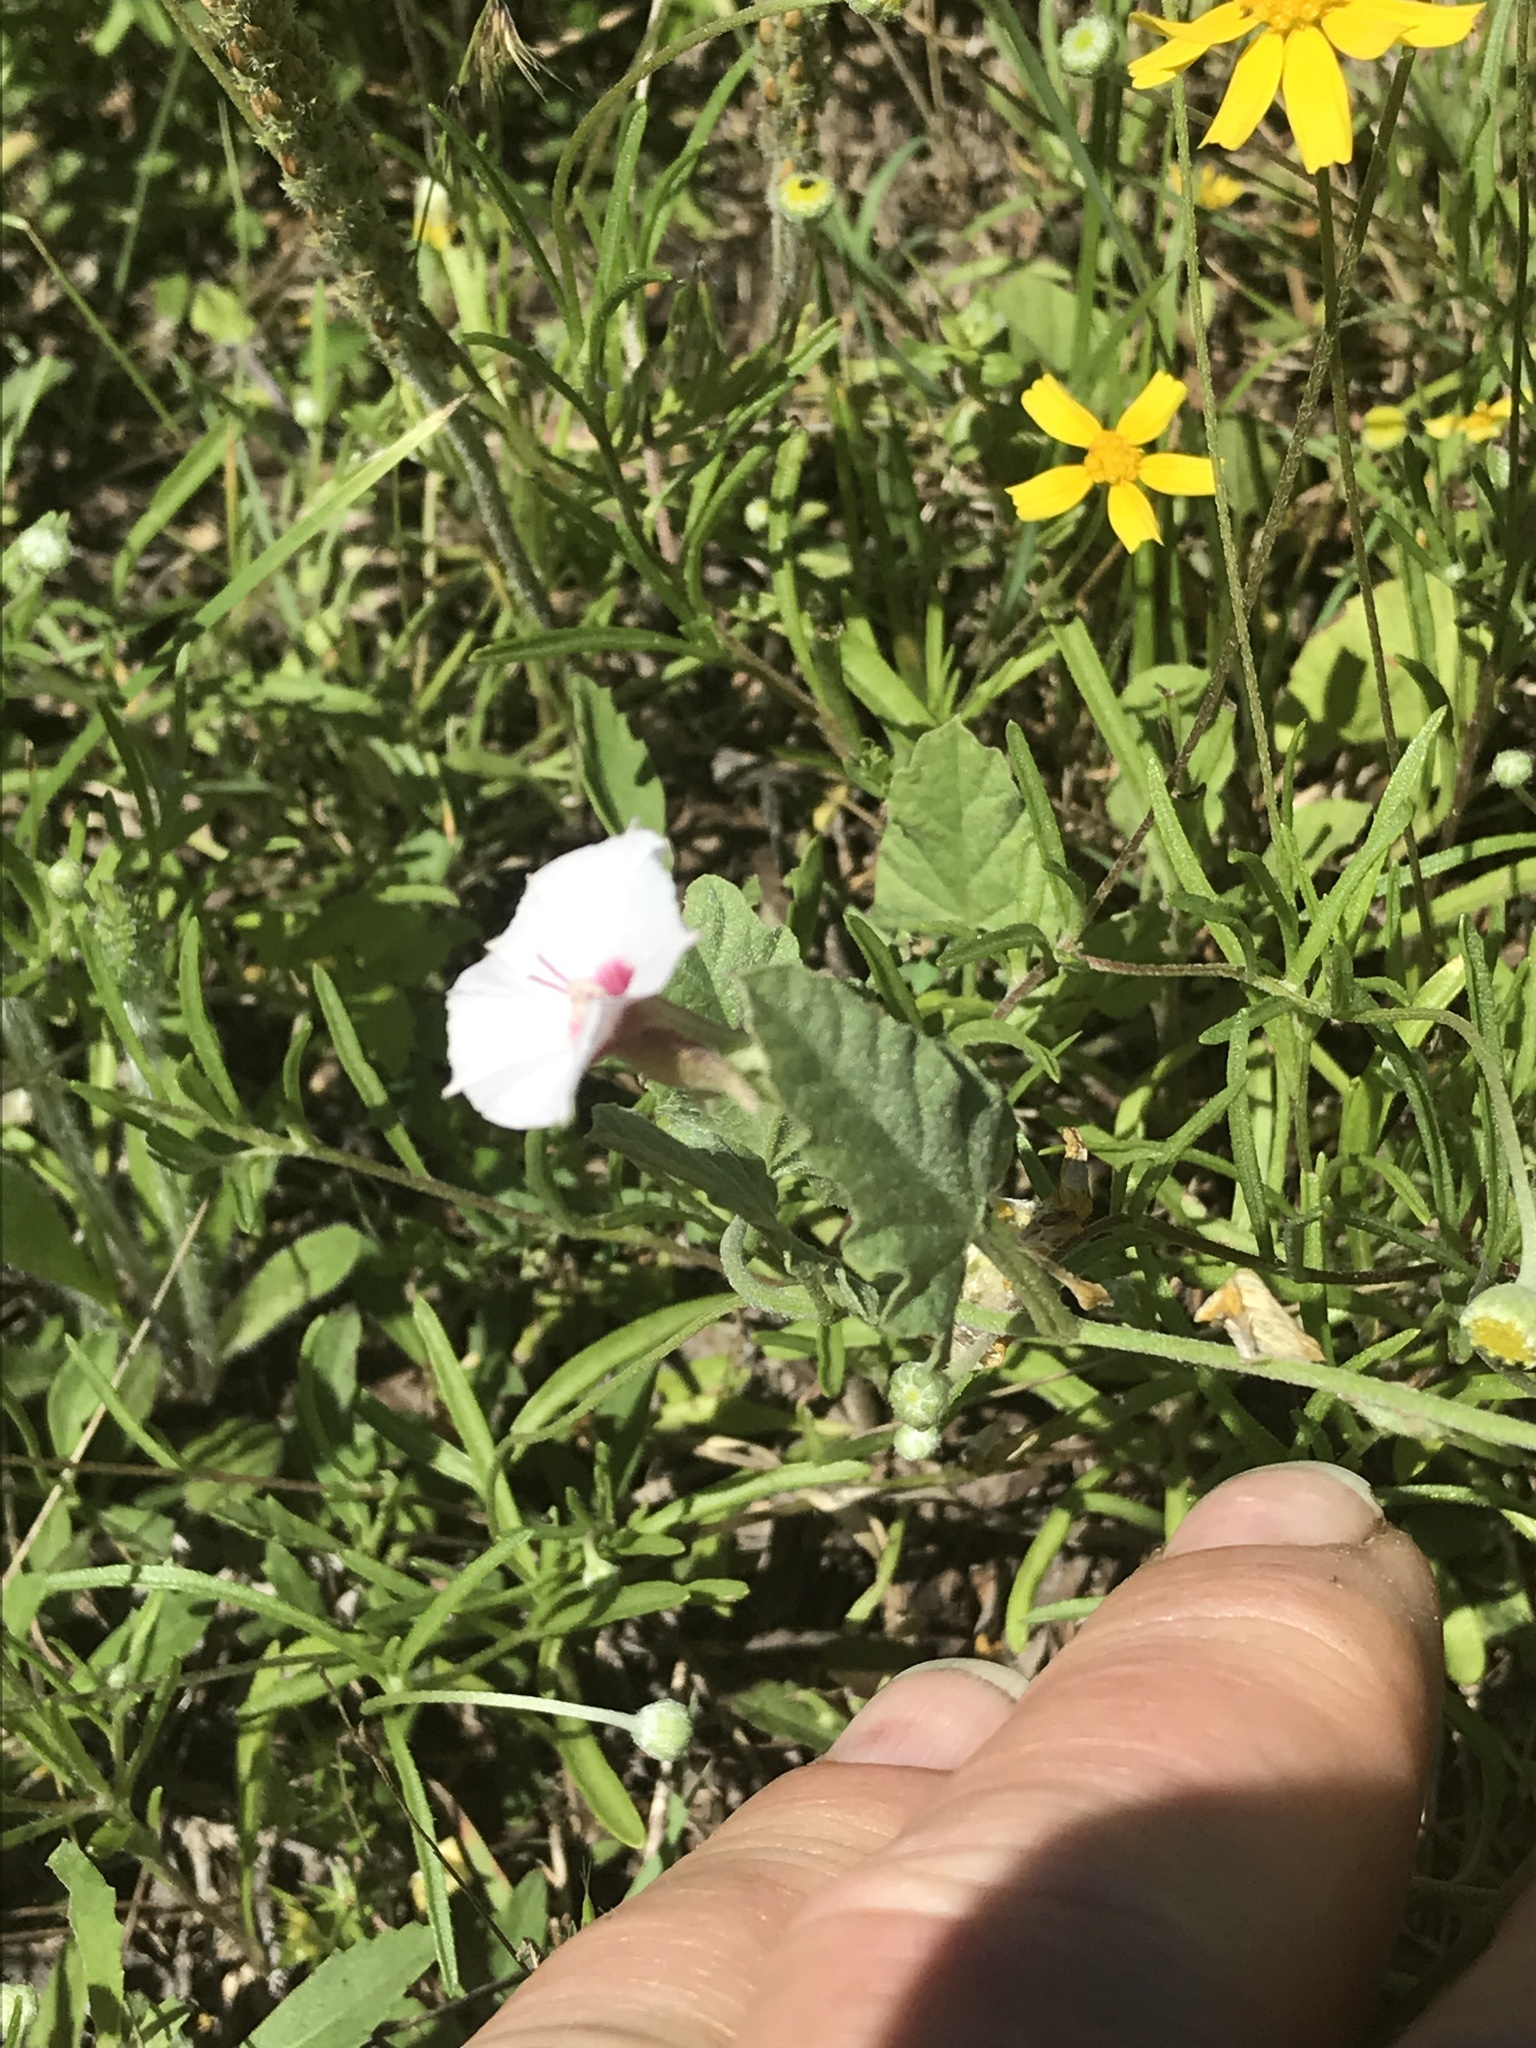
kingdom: Plantae
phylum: Tracheophyta
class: Magnoliopsida
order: Solanales
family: Convolvulaceae
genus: Convolvulus
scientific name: Convolvulus equitans
